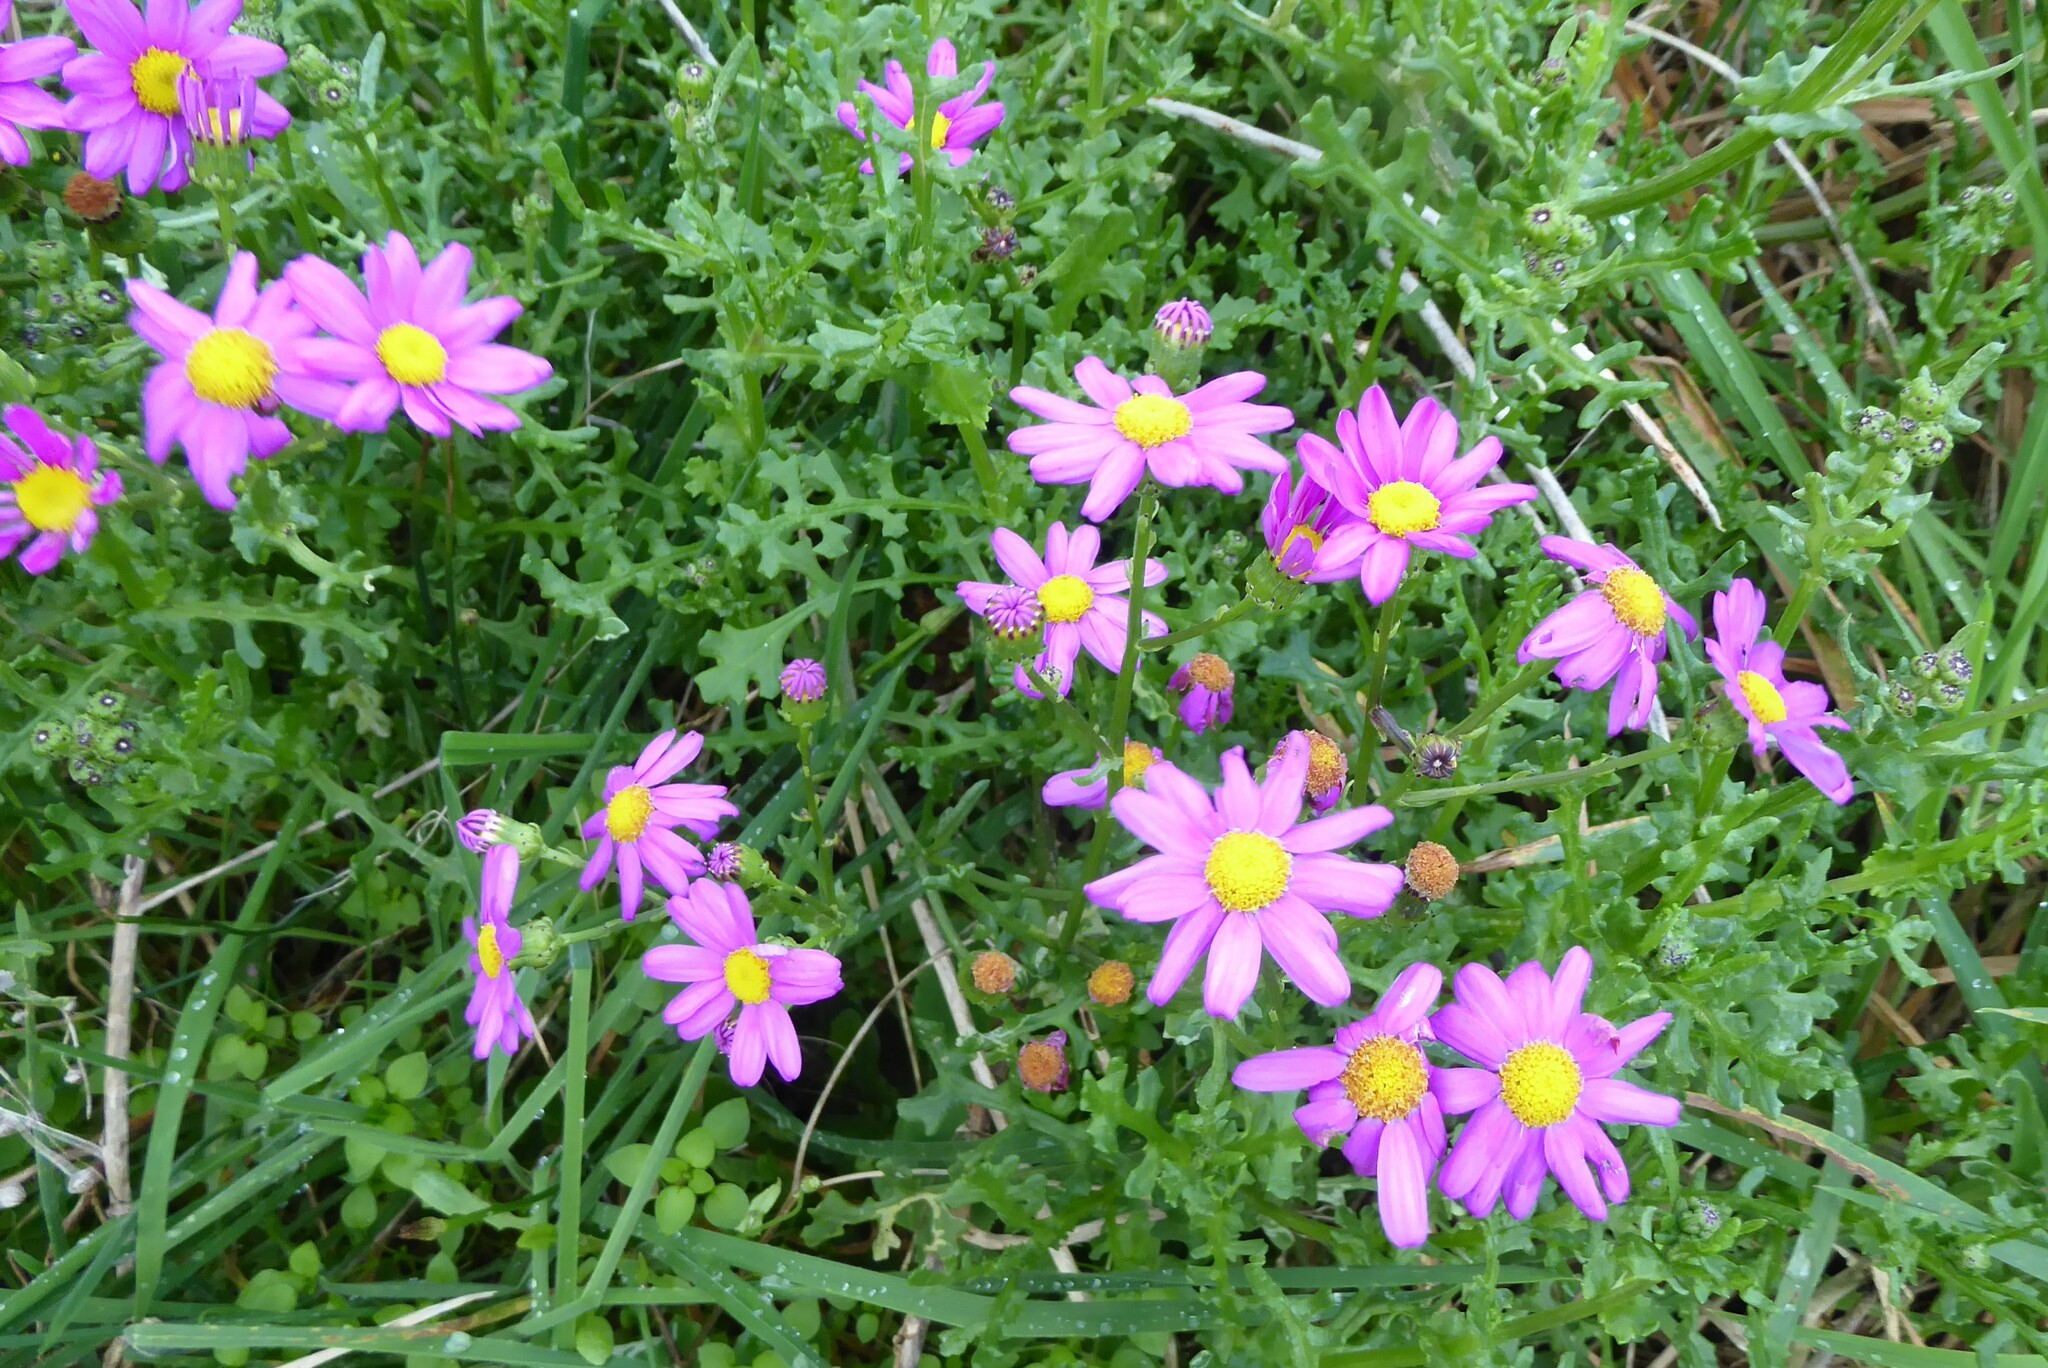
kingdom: Plantae
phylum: Tracheophyta
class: Magnoliopsida
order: Asterales
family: Asteraceae
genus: Senecio
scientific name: Senecio elegans
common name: Purple groundsel
